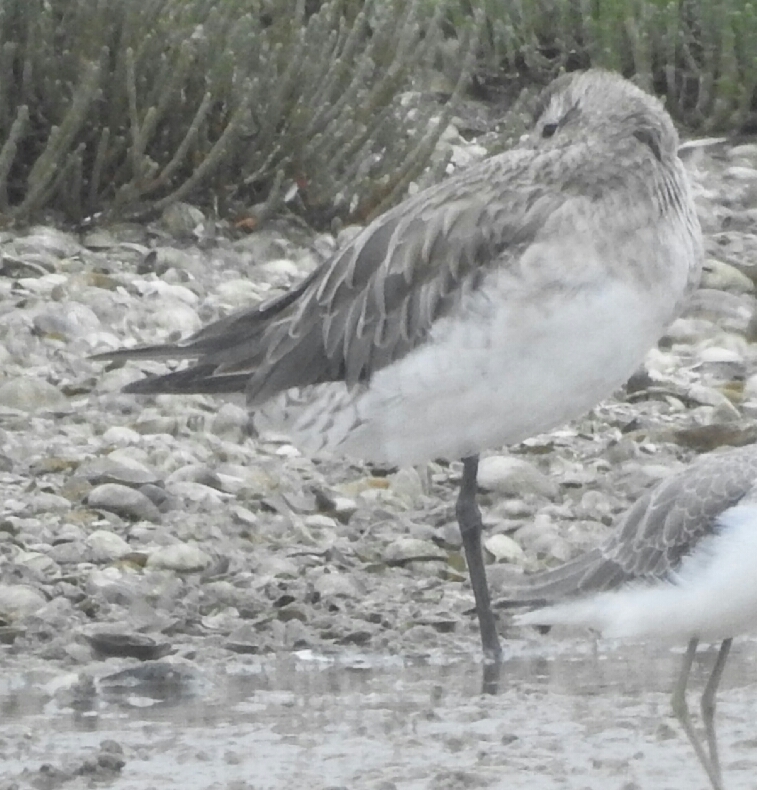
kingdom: Animalia
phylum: Chordata
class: Aves
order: Charadriiformes
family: Scolopacidae
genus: Limosa
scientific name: Limosa lapponica
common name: Bar-tailed godwit
